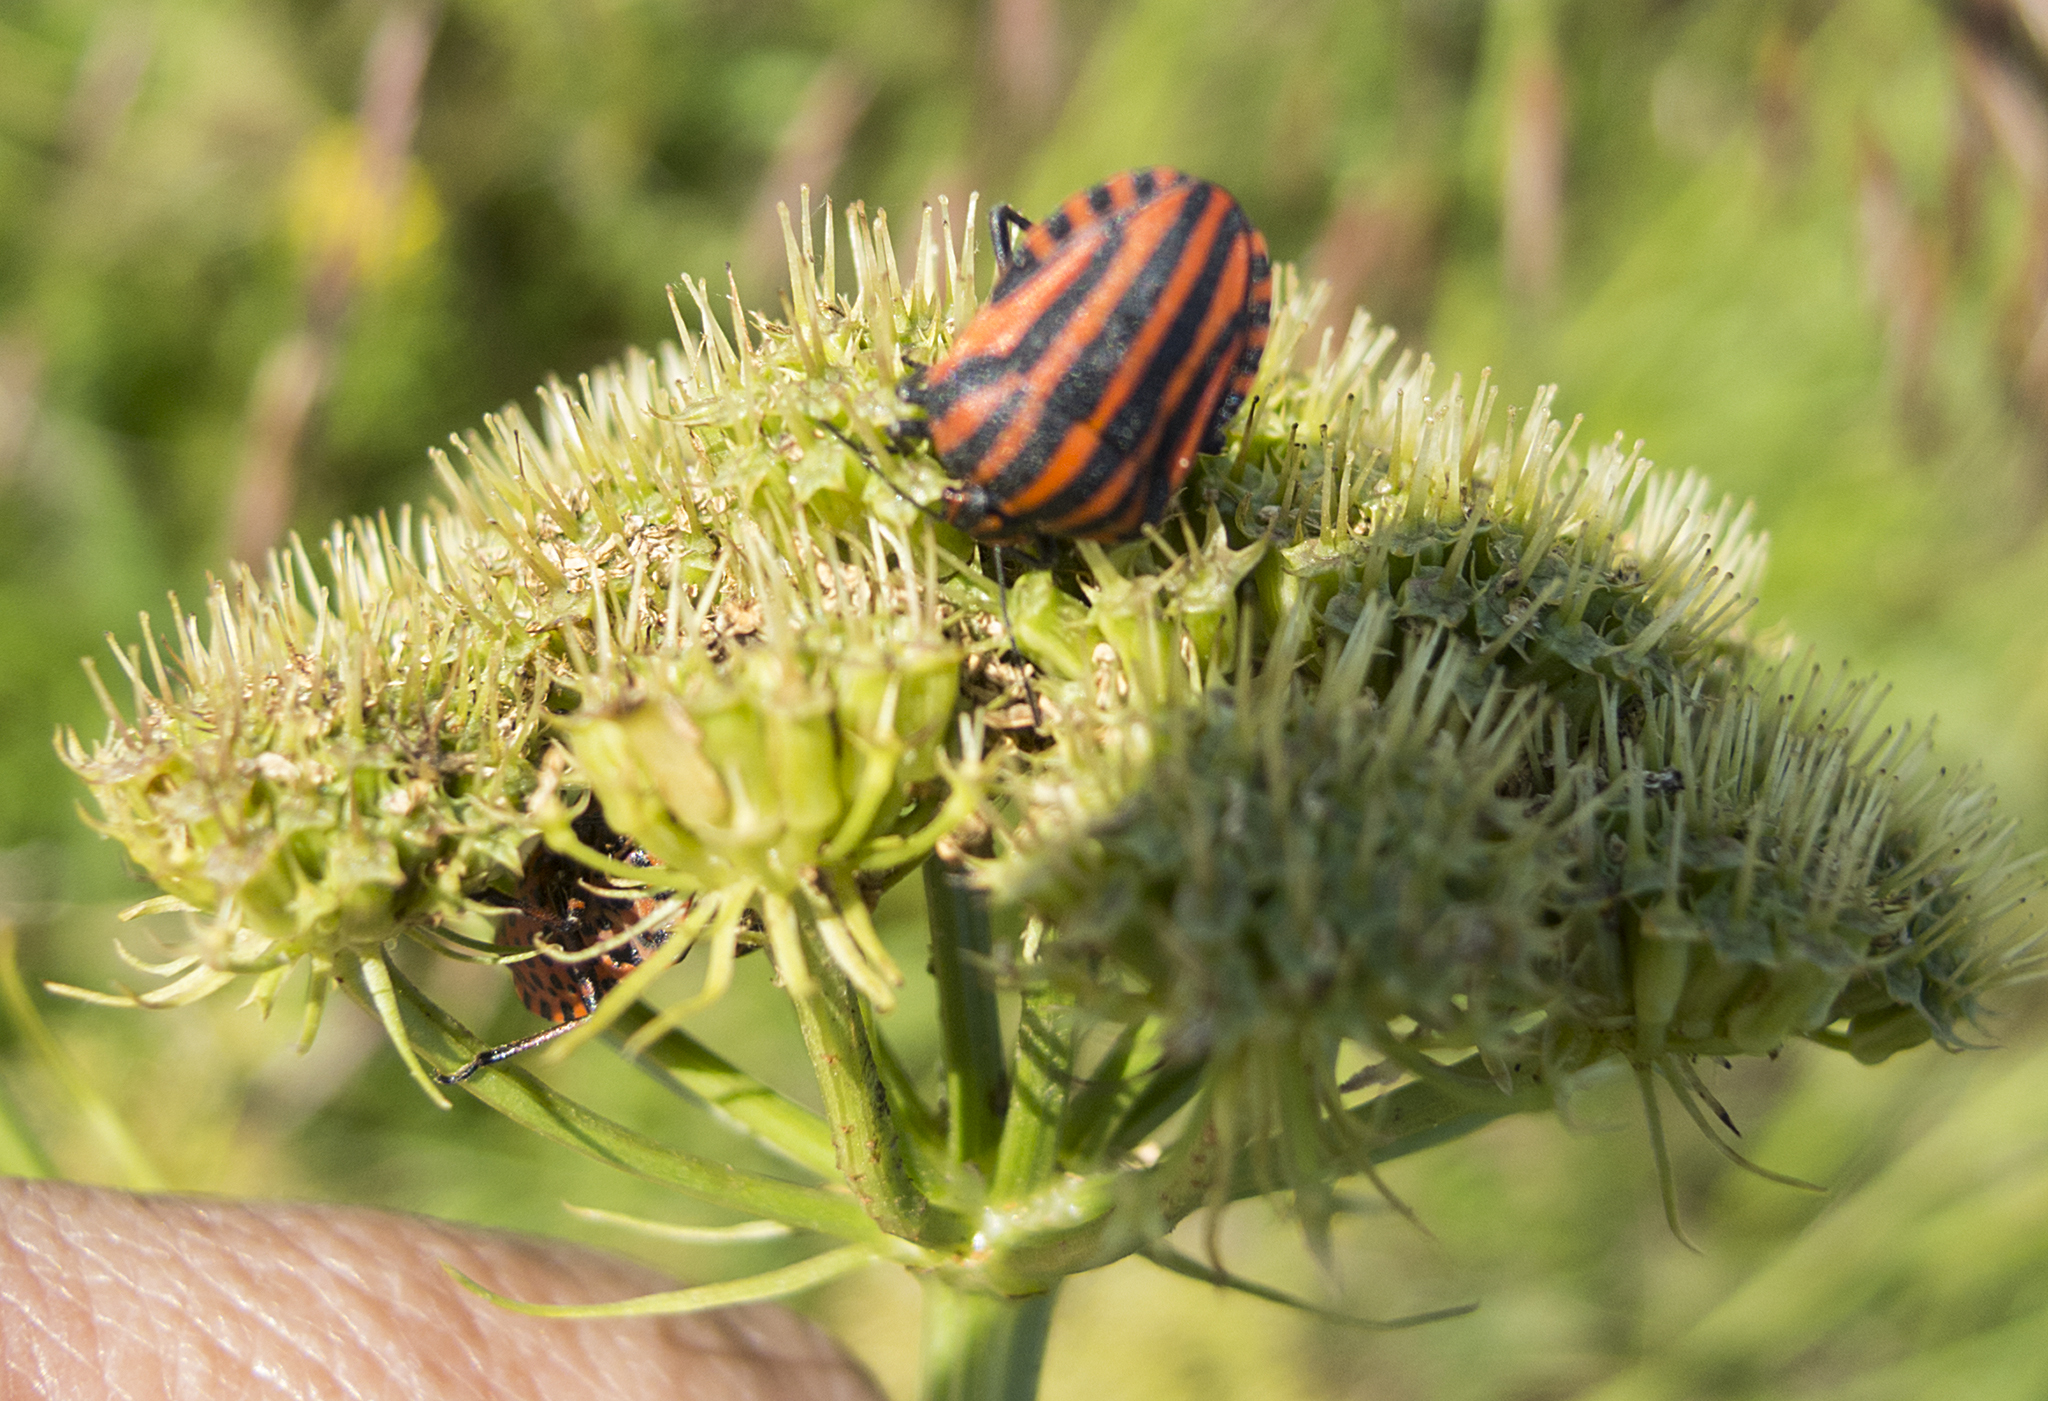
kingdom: Animalia
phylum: Arthropoda
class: Insecta
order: Hemiptera
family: Pentatomidae
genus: Graphosoma
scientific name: Graphosoma italicum
